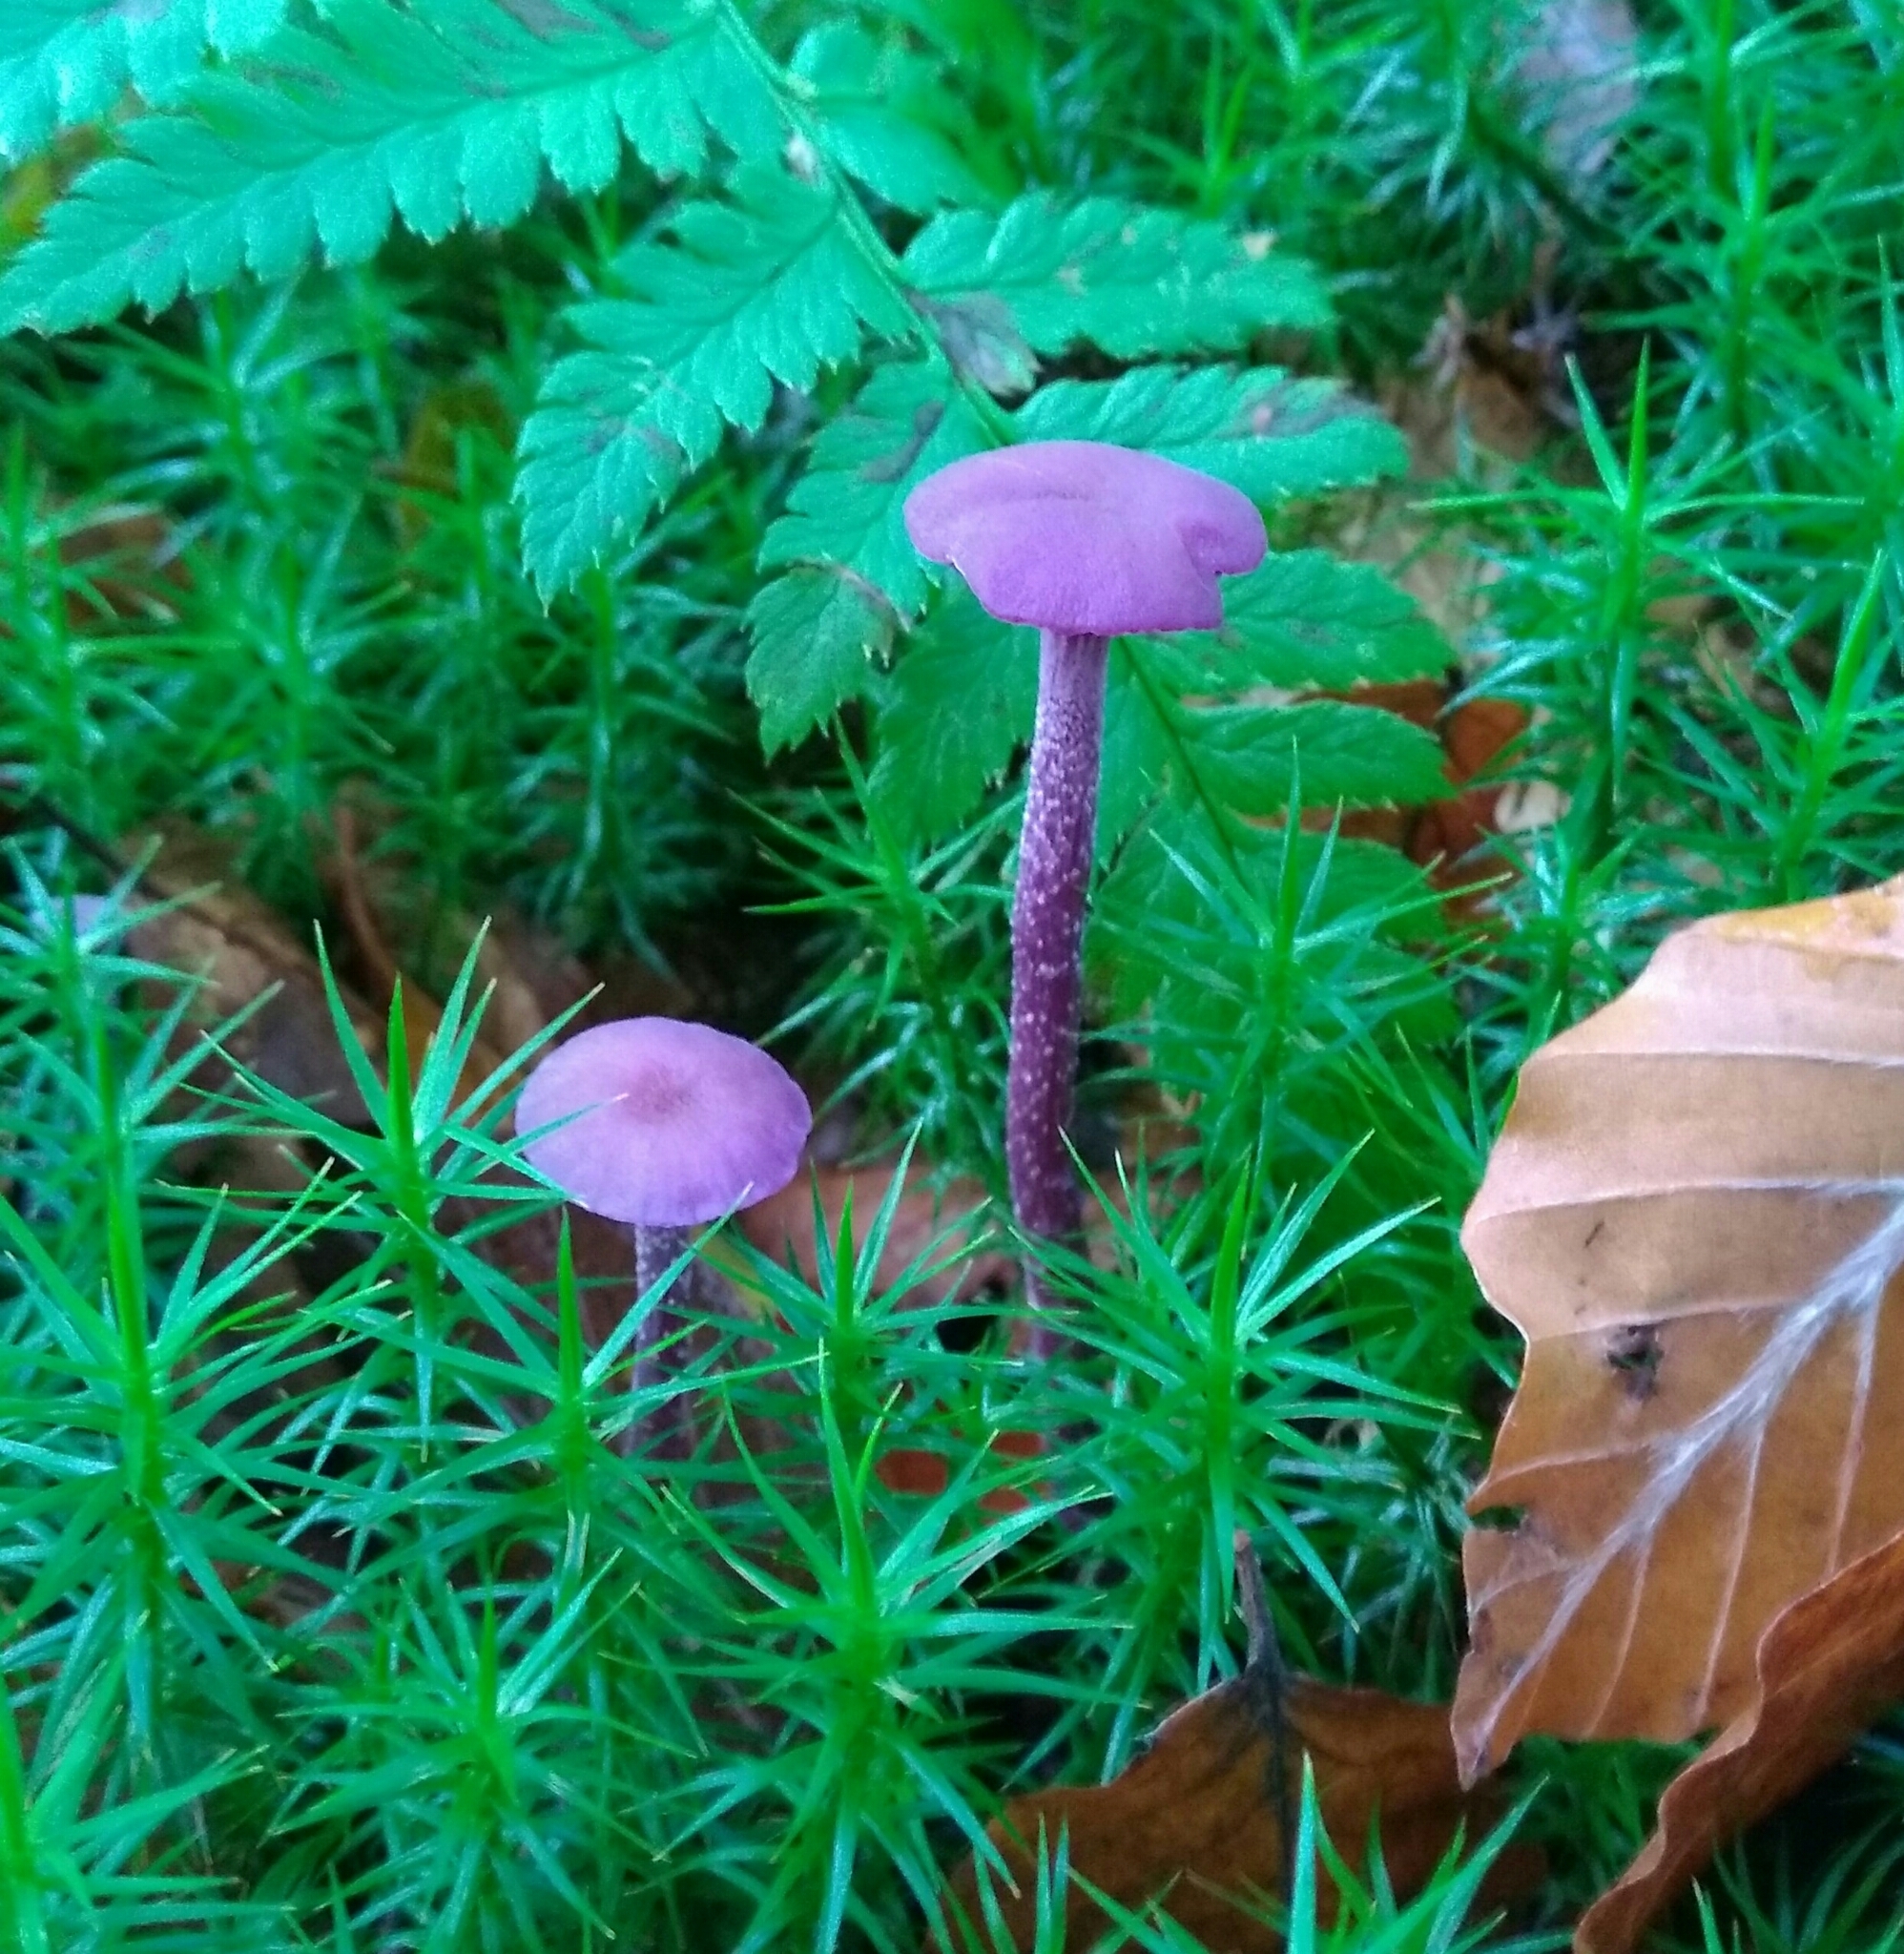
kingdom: Fungi
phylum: Basidiomycota
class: Agaricomycetes
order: Agaricales
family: Hydnangiaceae
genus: Laccaria
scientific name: Laccaria amethystina
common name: Amethyst deceiver
